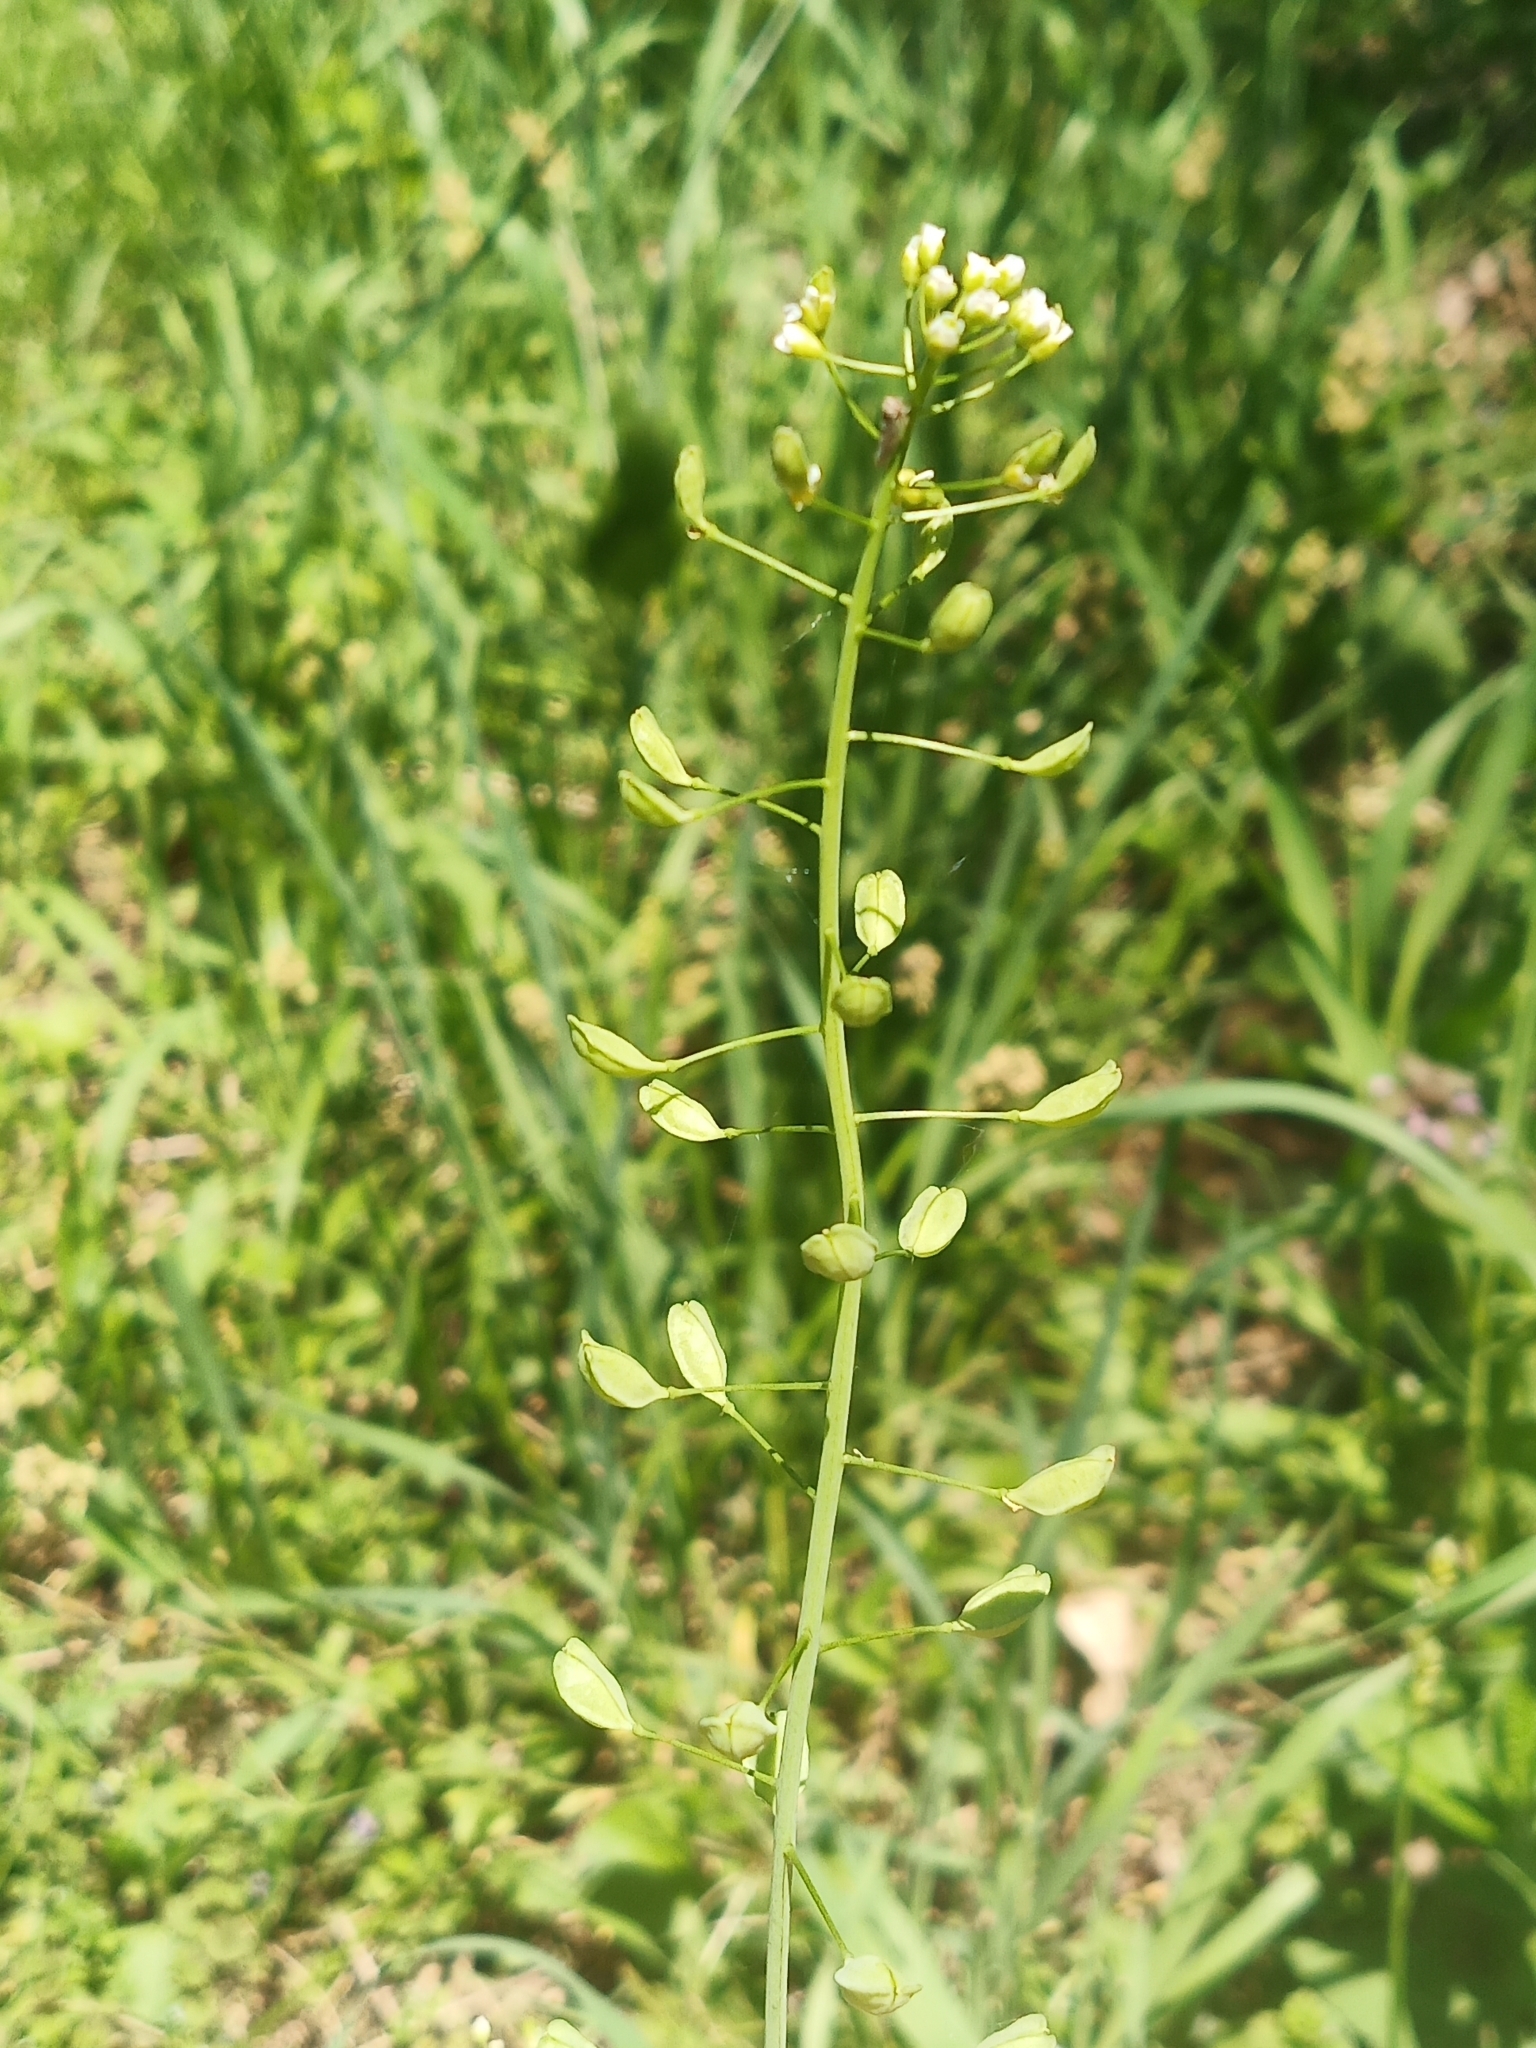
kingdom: Plantae
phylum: Tracheophyta
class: Magnoliopsida
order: Brassicales
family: Brassicaceae
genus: Mummenhoffia
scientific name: Mummenhoffia alliacea
